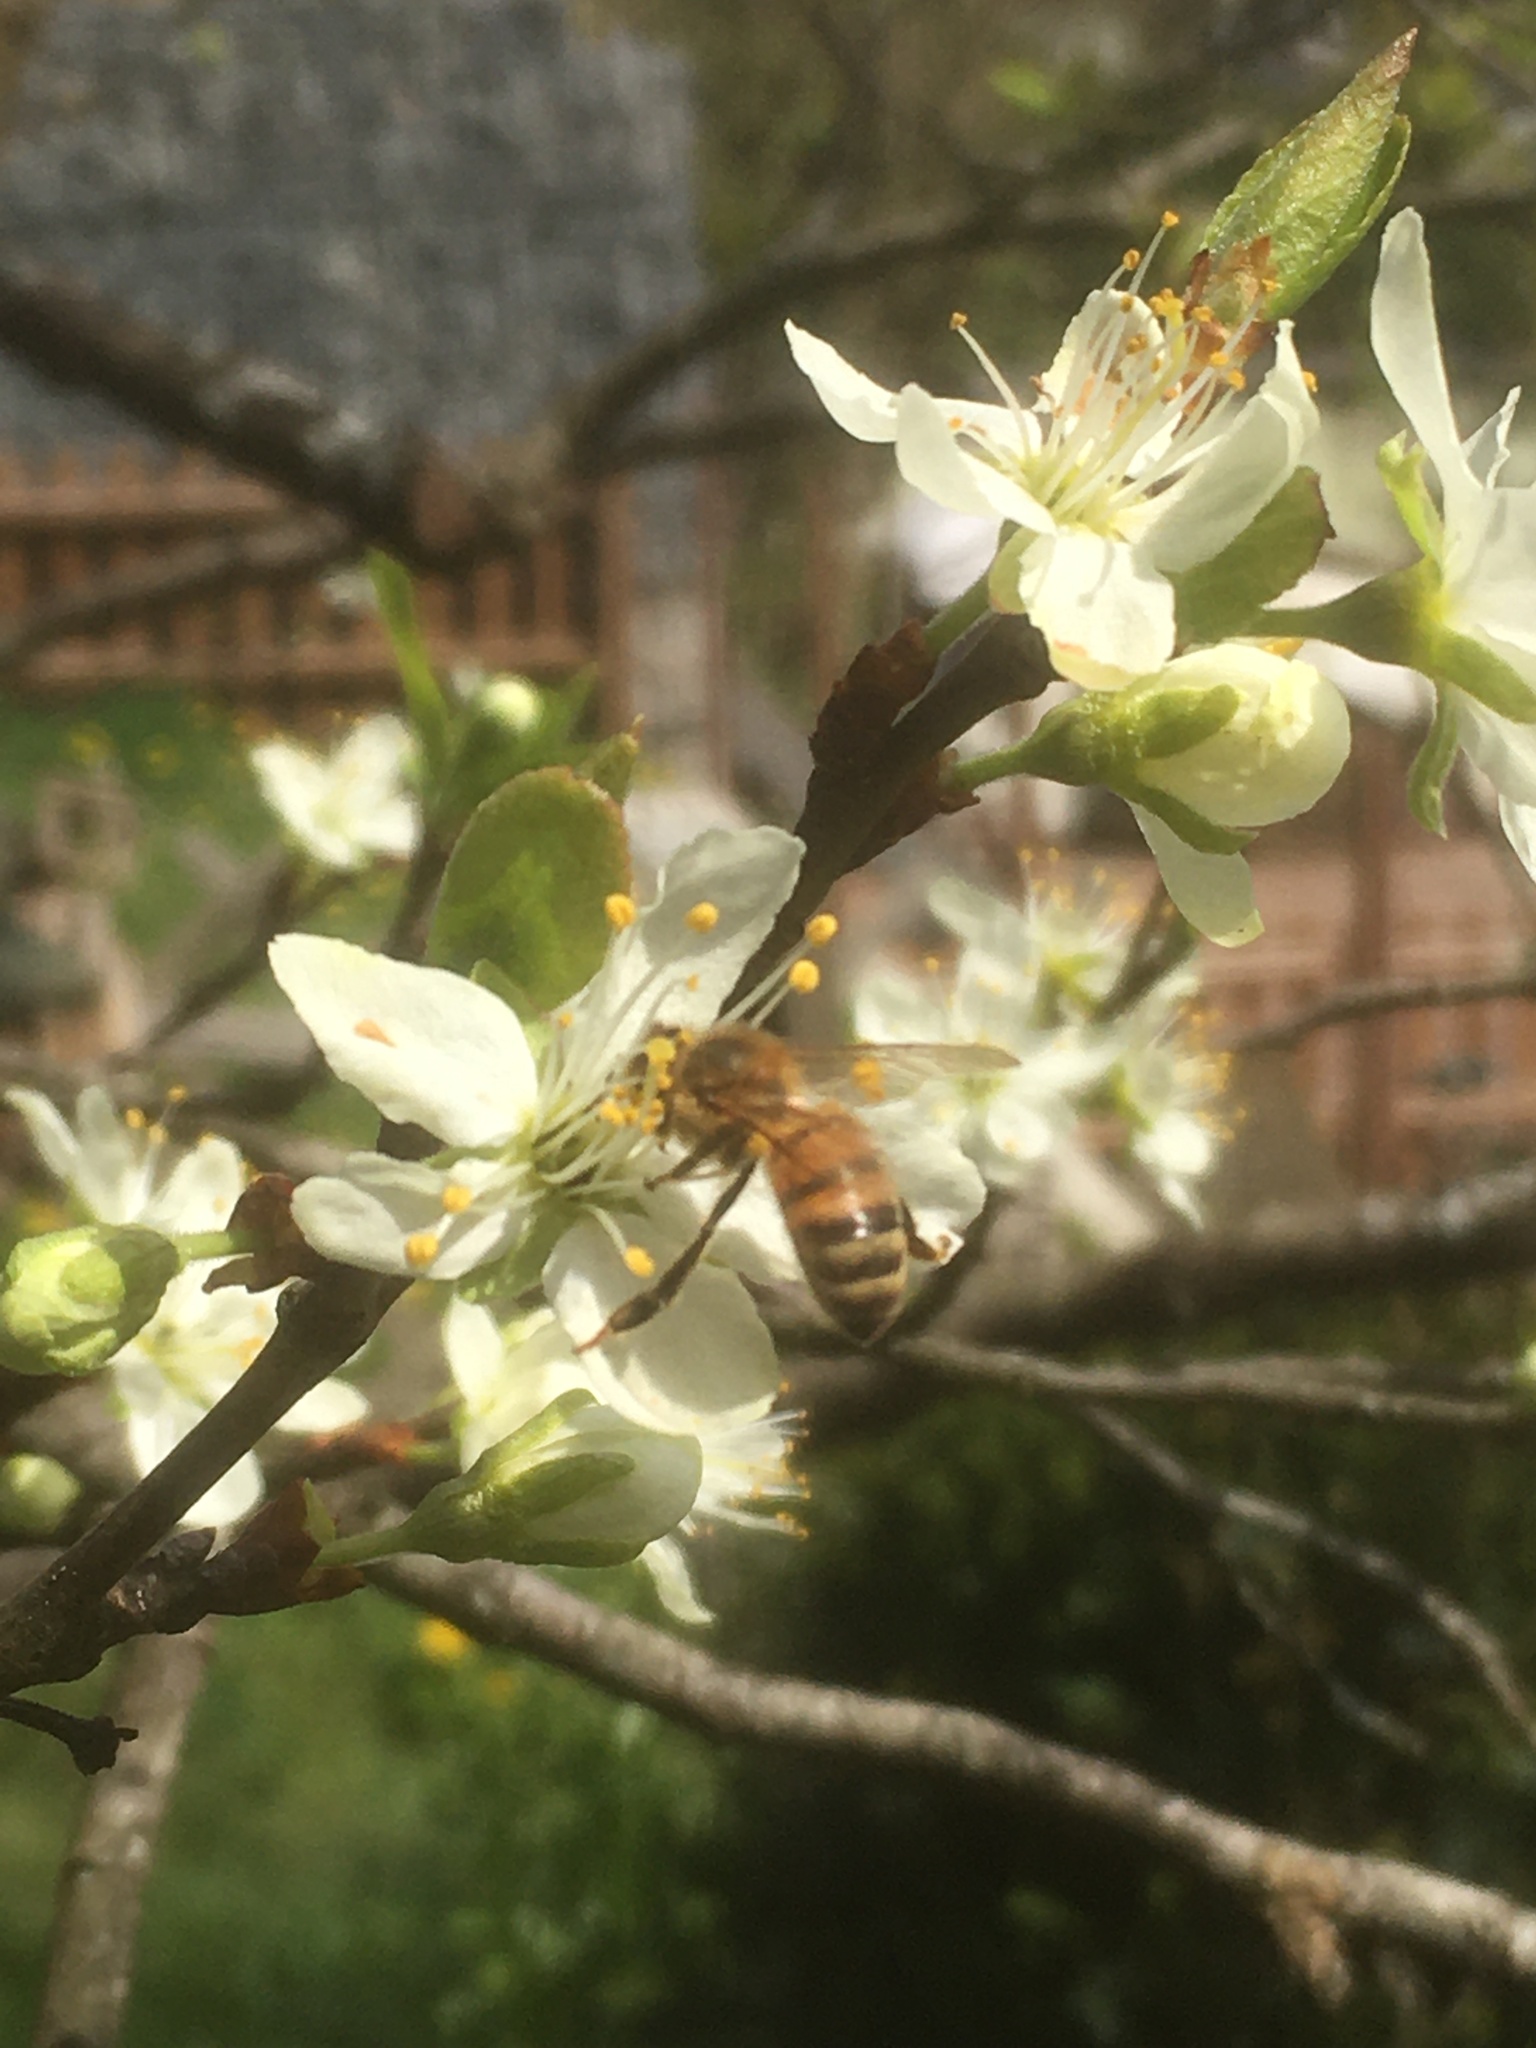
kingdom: Animalia
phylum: Arthropoda
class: Insecta
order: Hymenoptera
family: Apidae
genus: Apis
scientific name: Apis mellifera
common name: Honey bee
